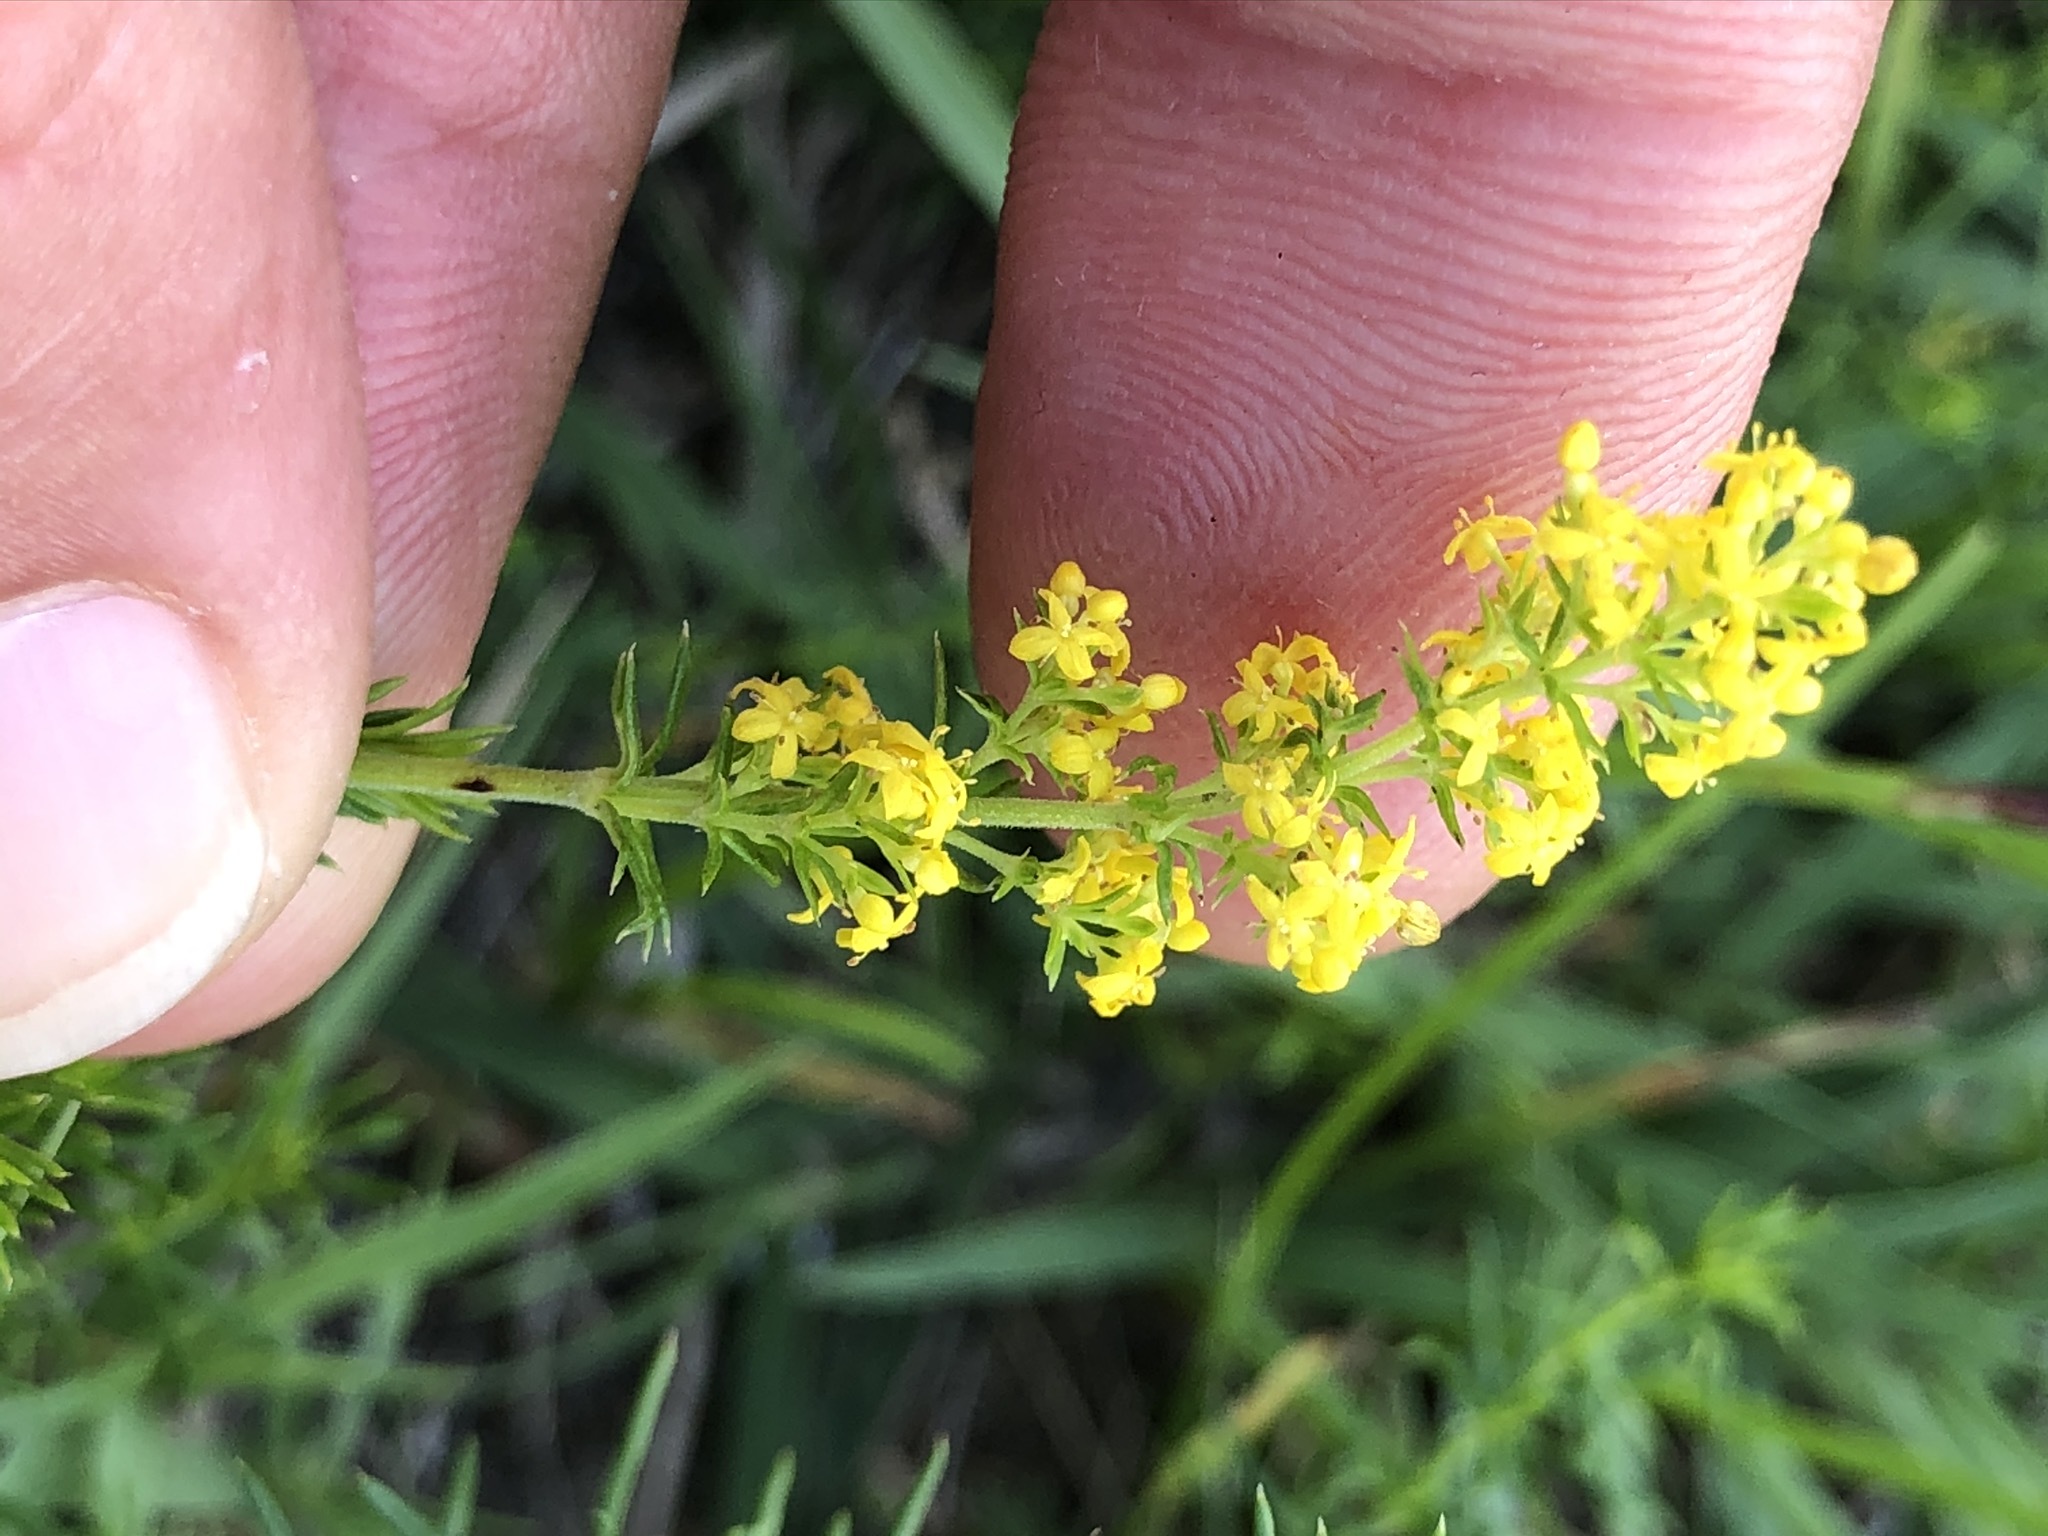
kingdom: Plantae
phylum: Tracheophyta
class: Magnoliopsida
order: Gentianales
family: Rubiaceae
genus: Galium
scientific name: Galium verum
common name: Lady's bedstraw
